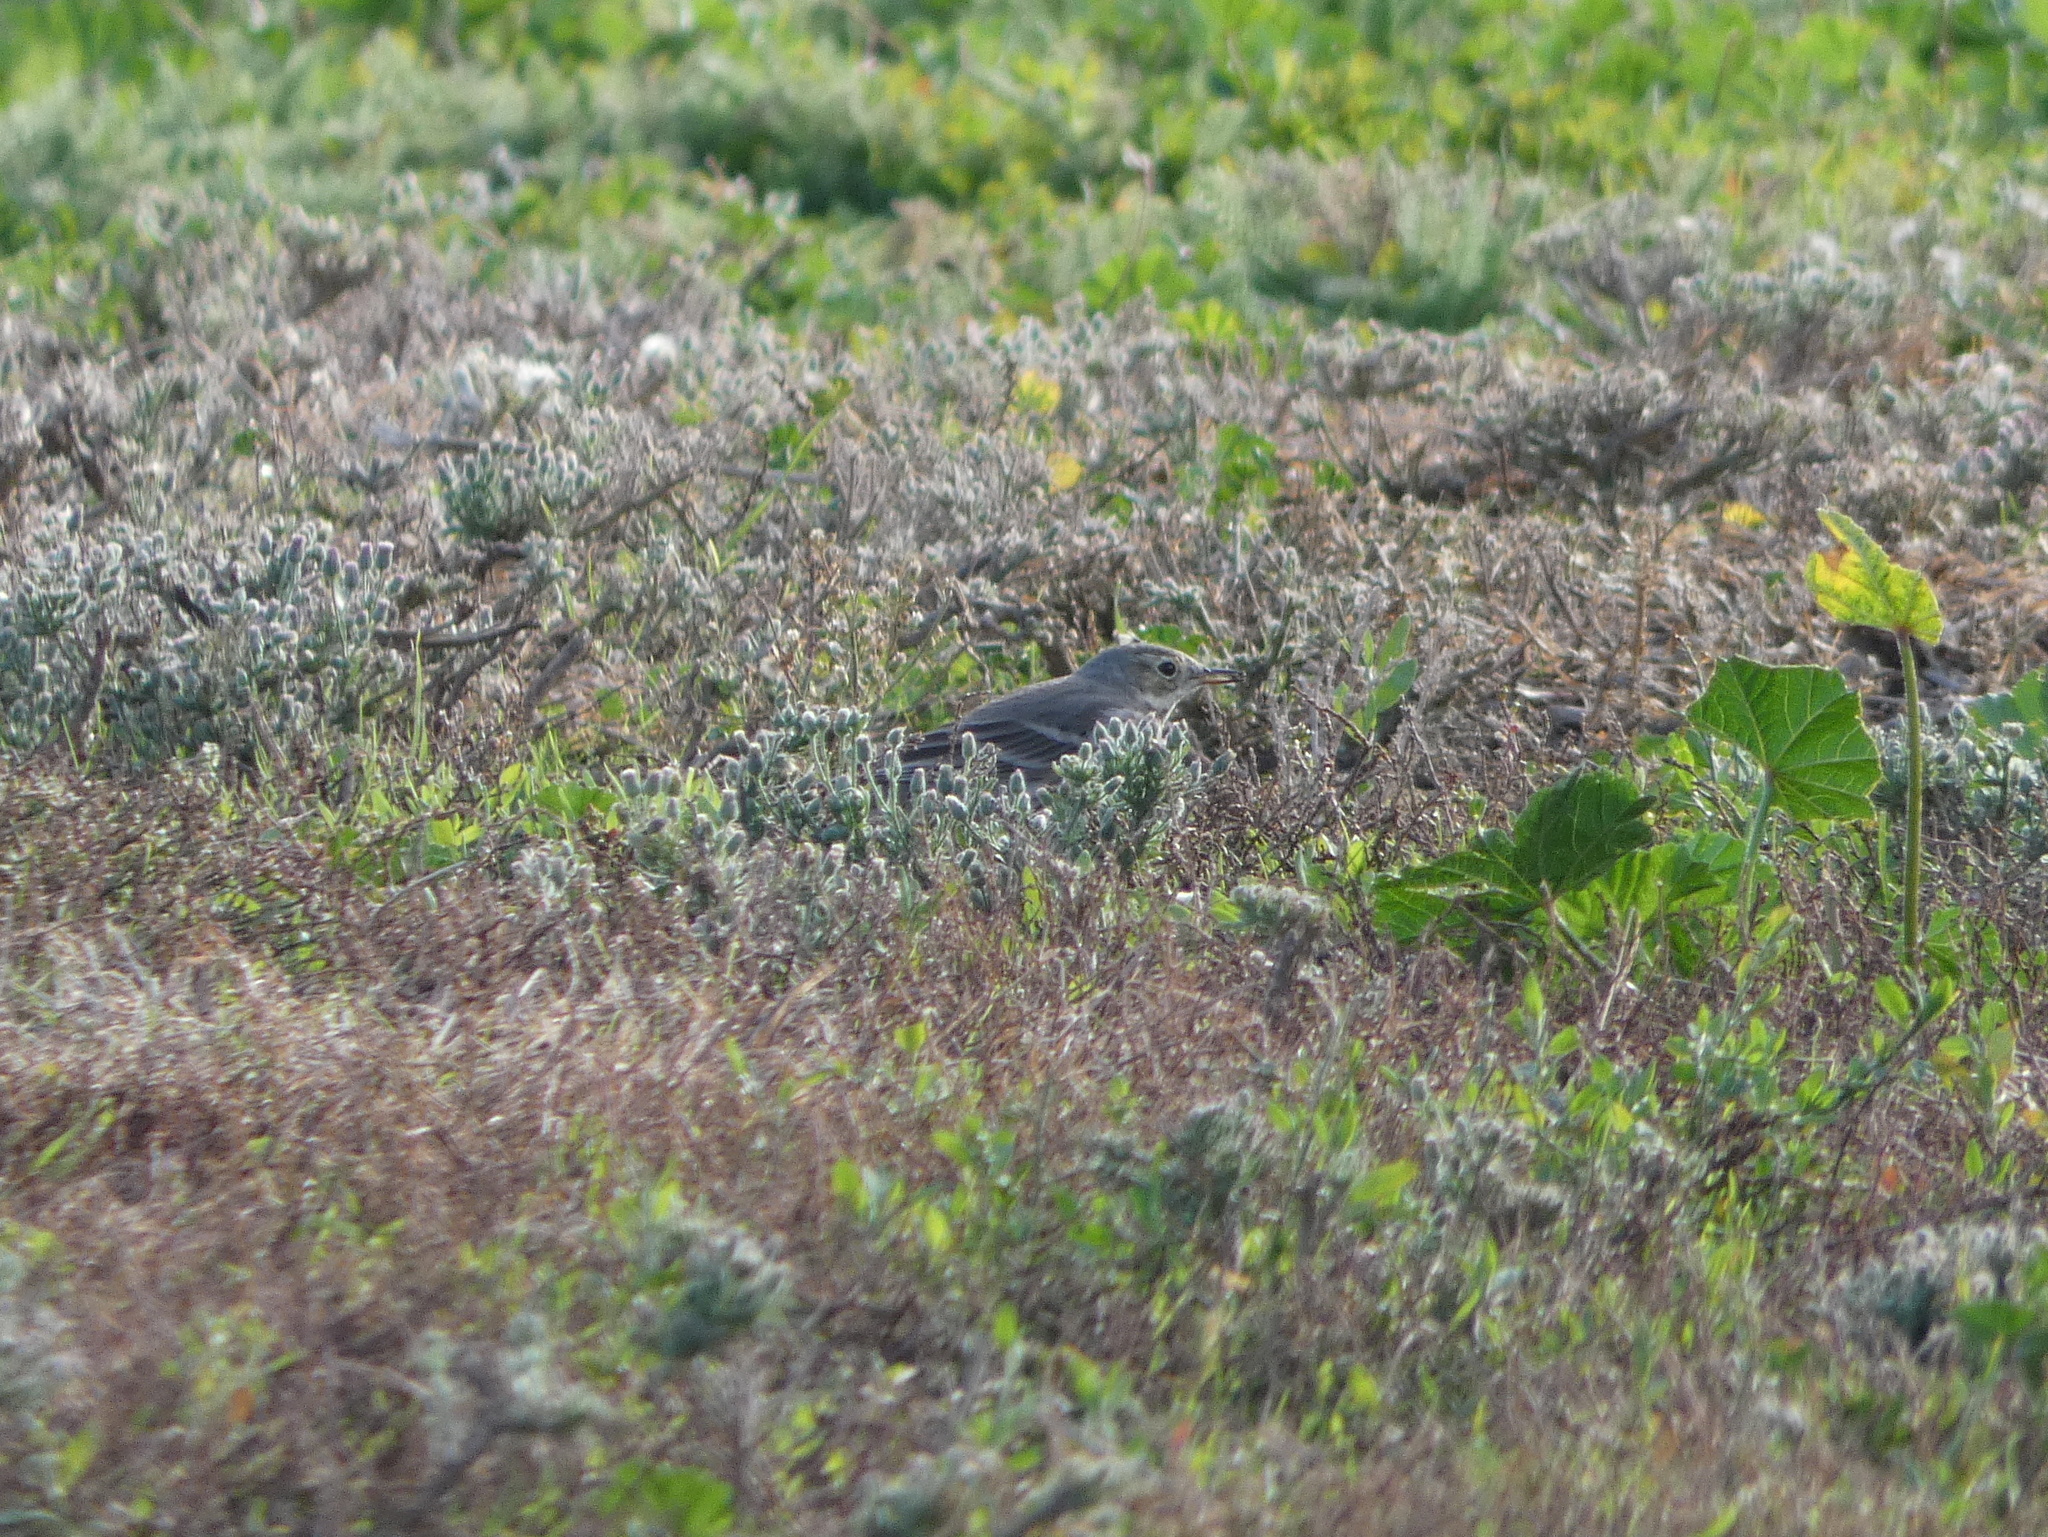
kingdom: Animalia
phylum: Chordata
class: Aves
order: Passeriformes
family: Motacillidae
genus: Anthus
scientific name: Anthus rubescens
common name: Buff-bellied pipit
